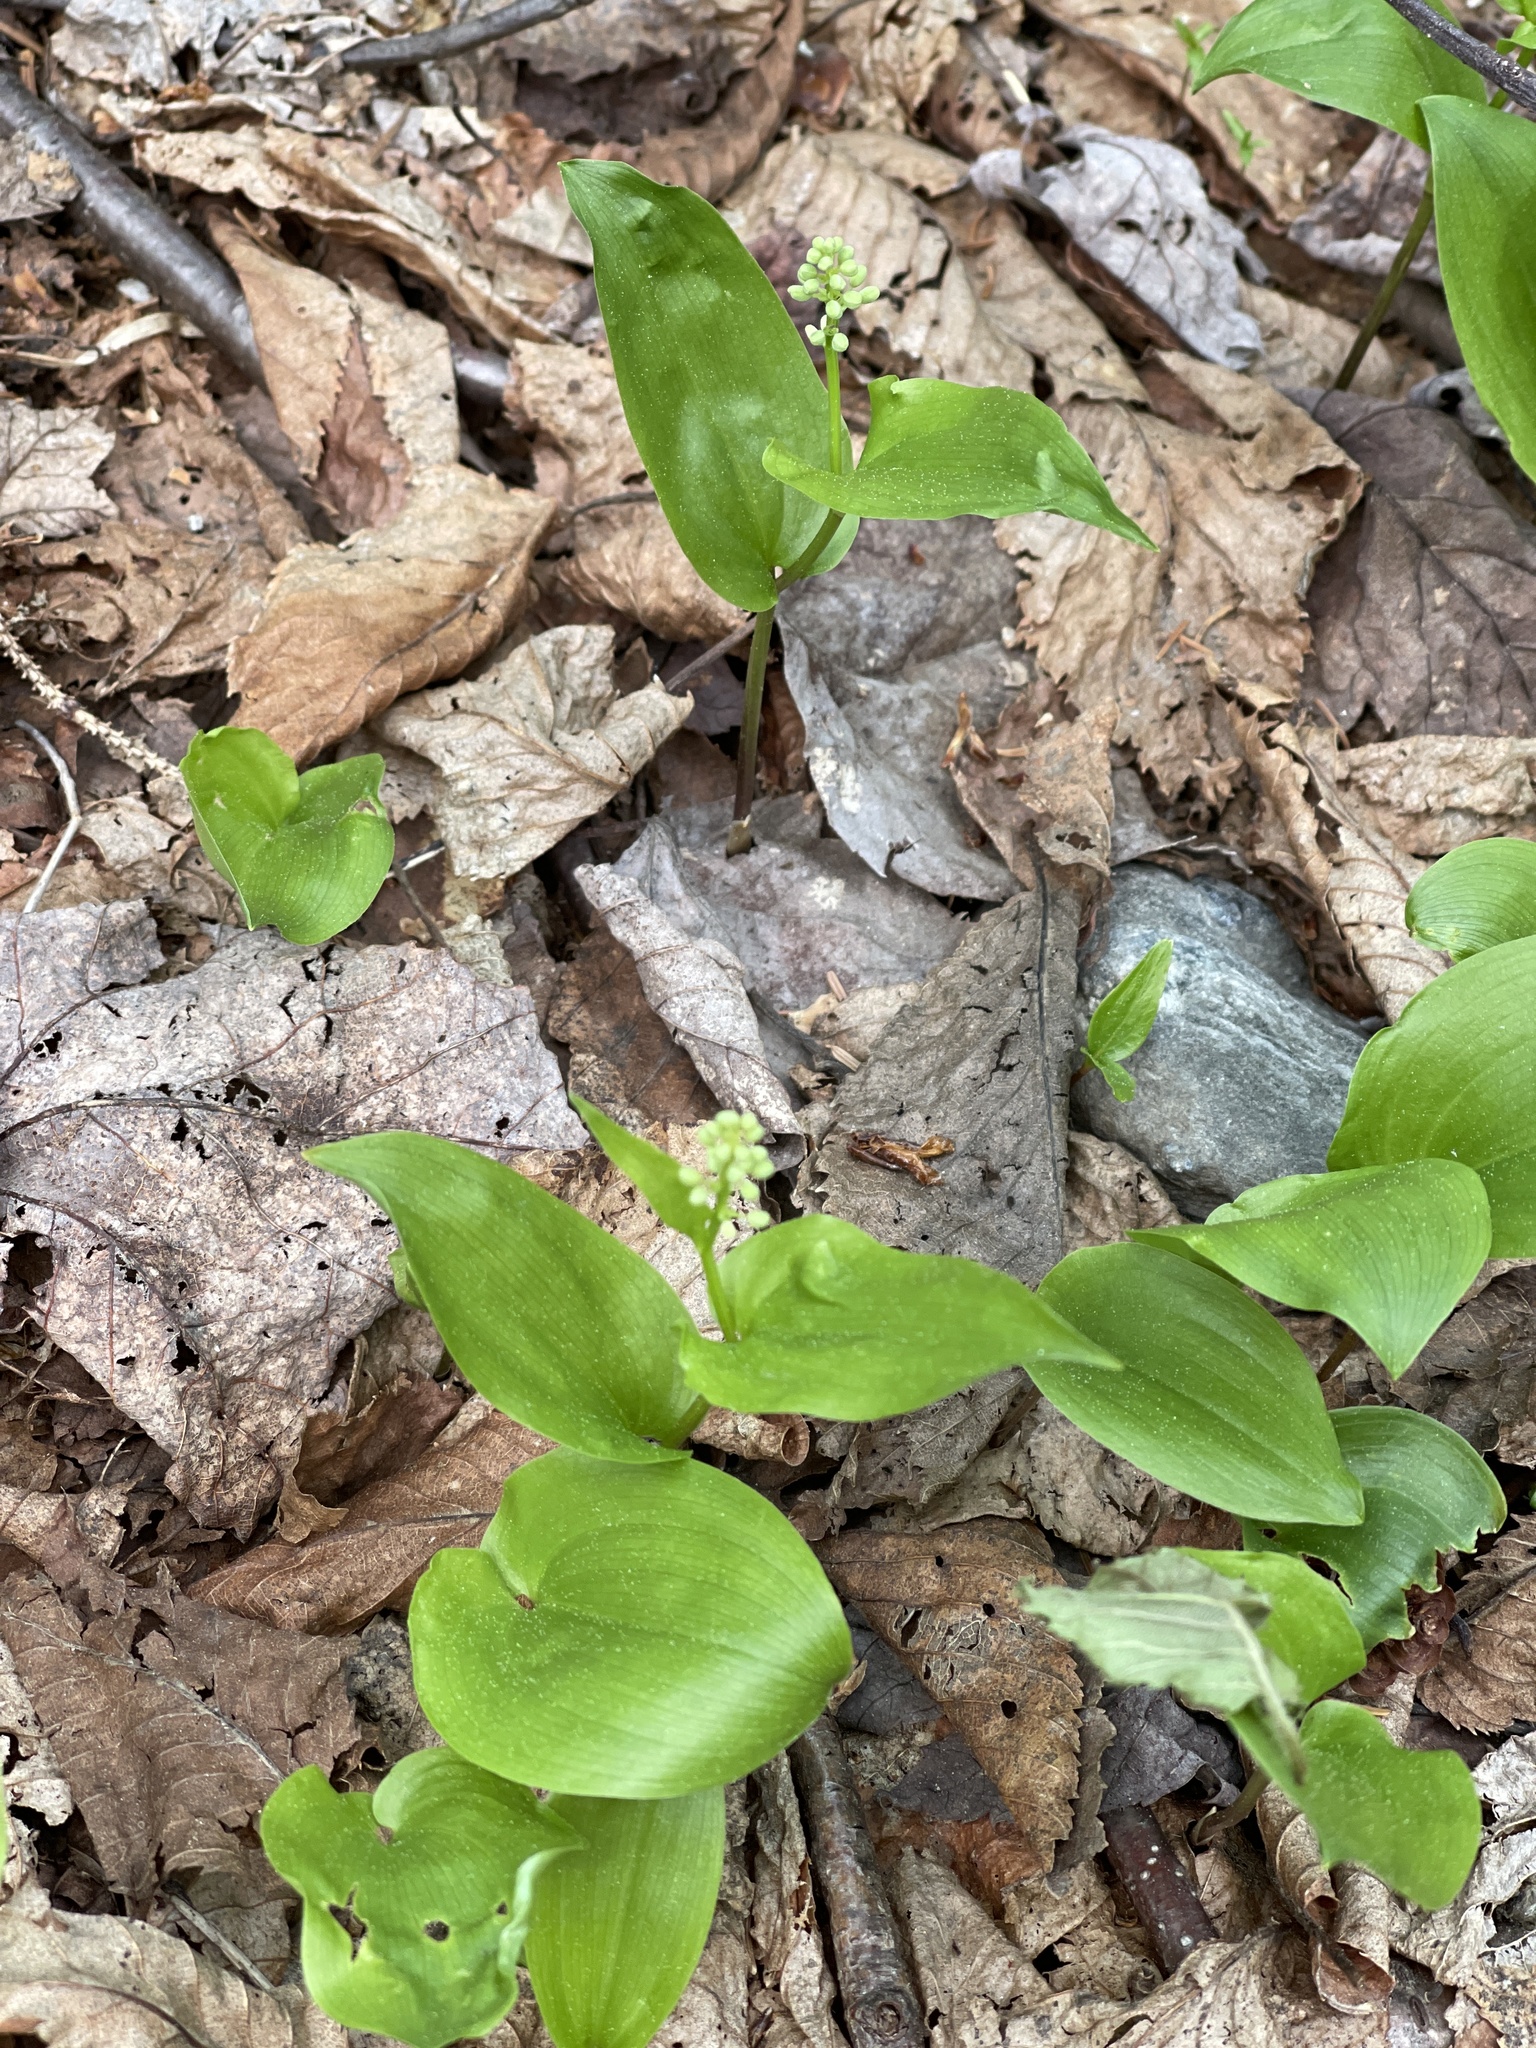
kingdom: Plantae
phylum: Tracheophyta
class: Liliopsida
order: Asparagales
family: Asparagaceae
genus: Maianthemum
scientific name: Maianthemum canadense
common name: False lily-of-the-valley
